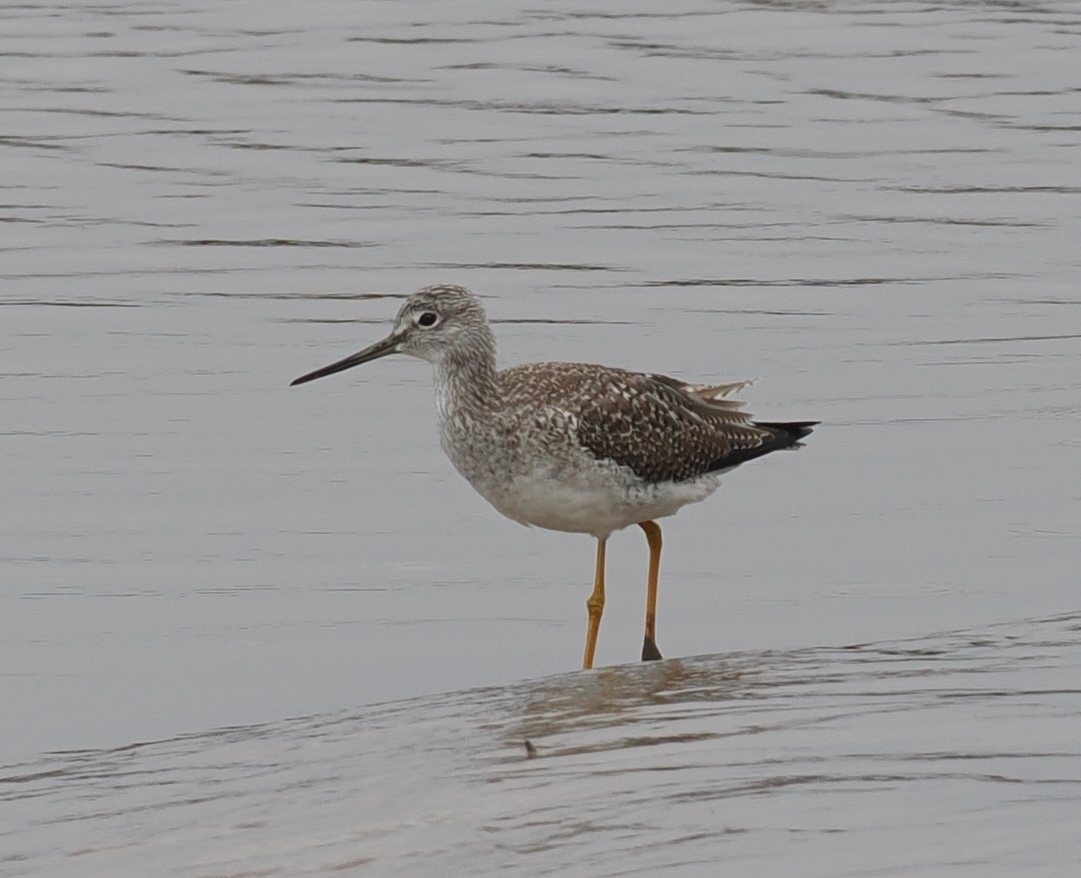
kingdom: Animalia
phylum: Chordata
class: Aves
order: Charadriiformes
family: Scolopacidae
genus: Tringa
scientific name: Tringa melanoleuca
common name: Greater yellowlegs
